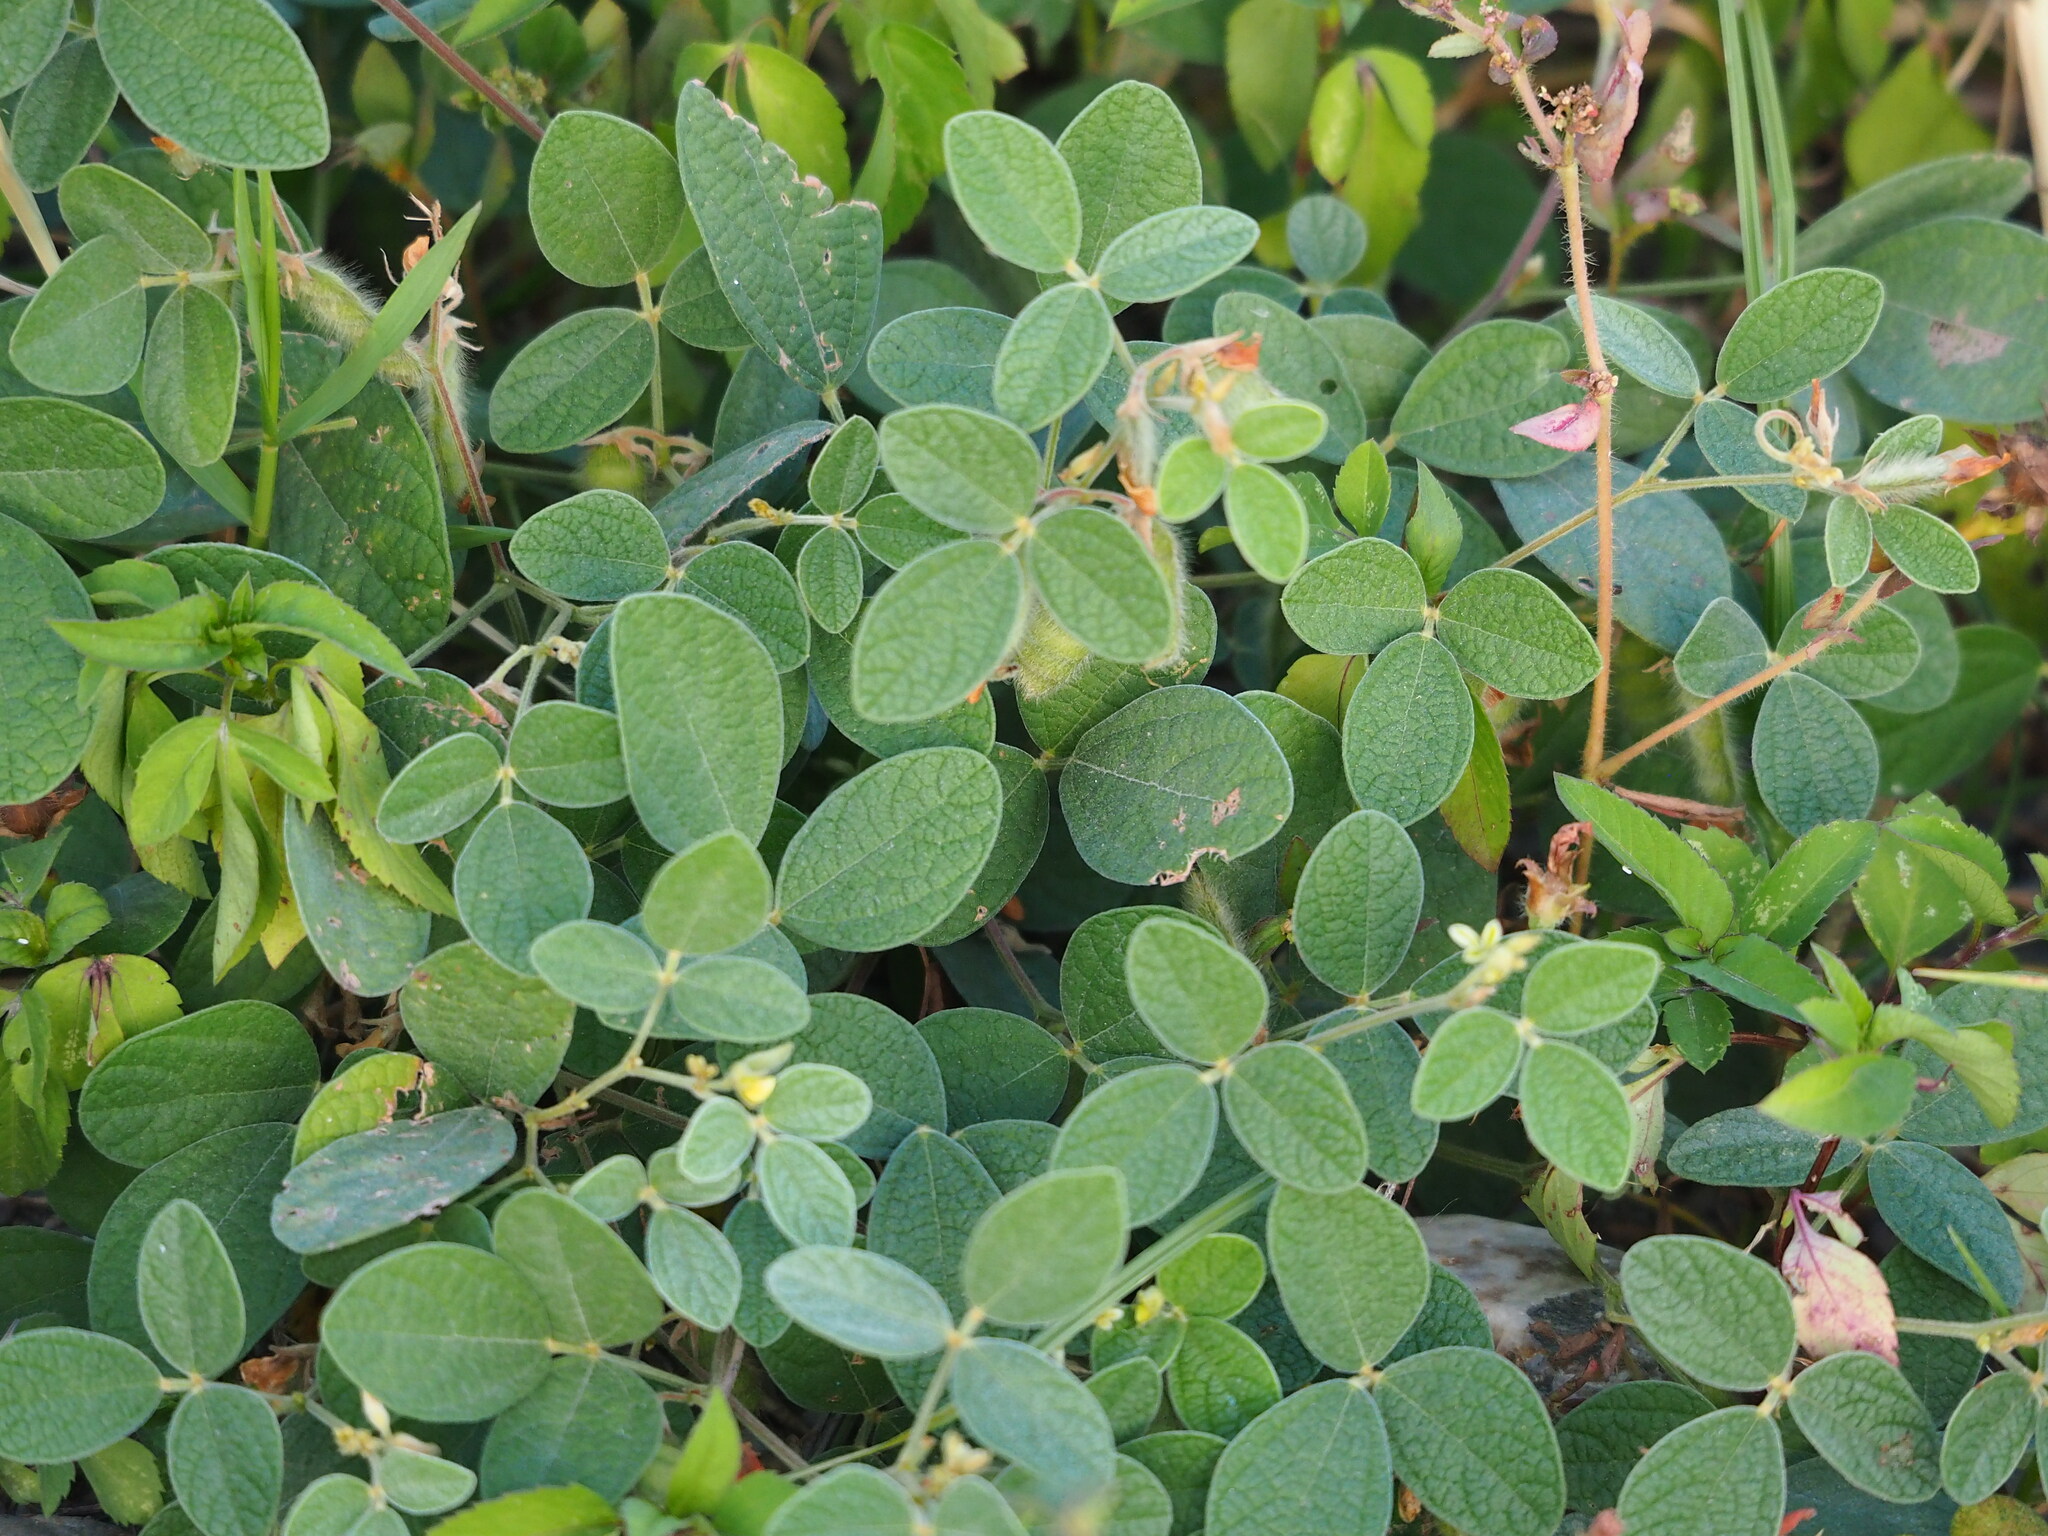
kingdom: Plantae
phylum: Tracheophyta
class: Magnoliopsida
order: Fabales
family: Fabaceae
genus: Cajanus
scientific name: Cajanus scarabaeoides
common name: Showy pigeonpea
